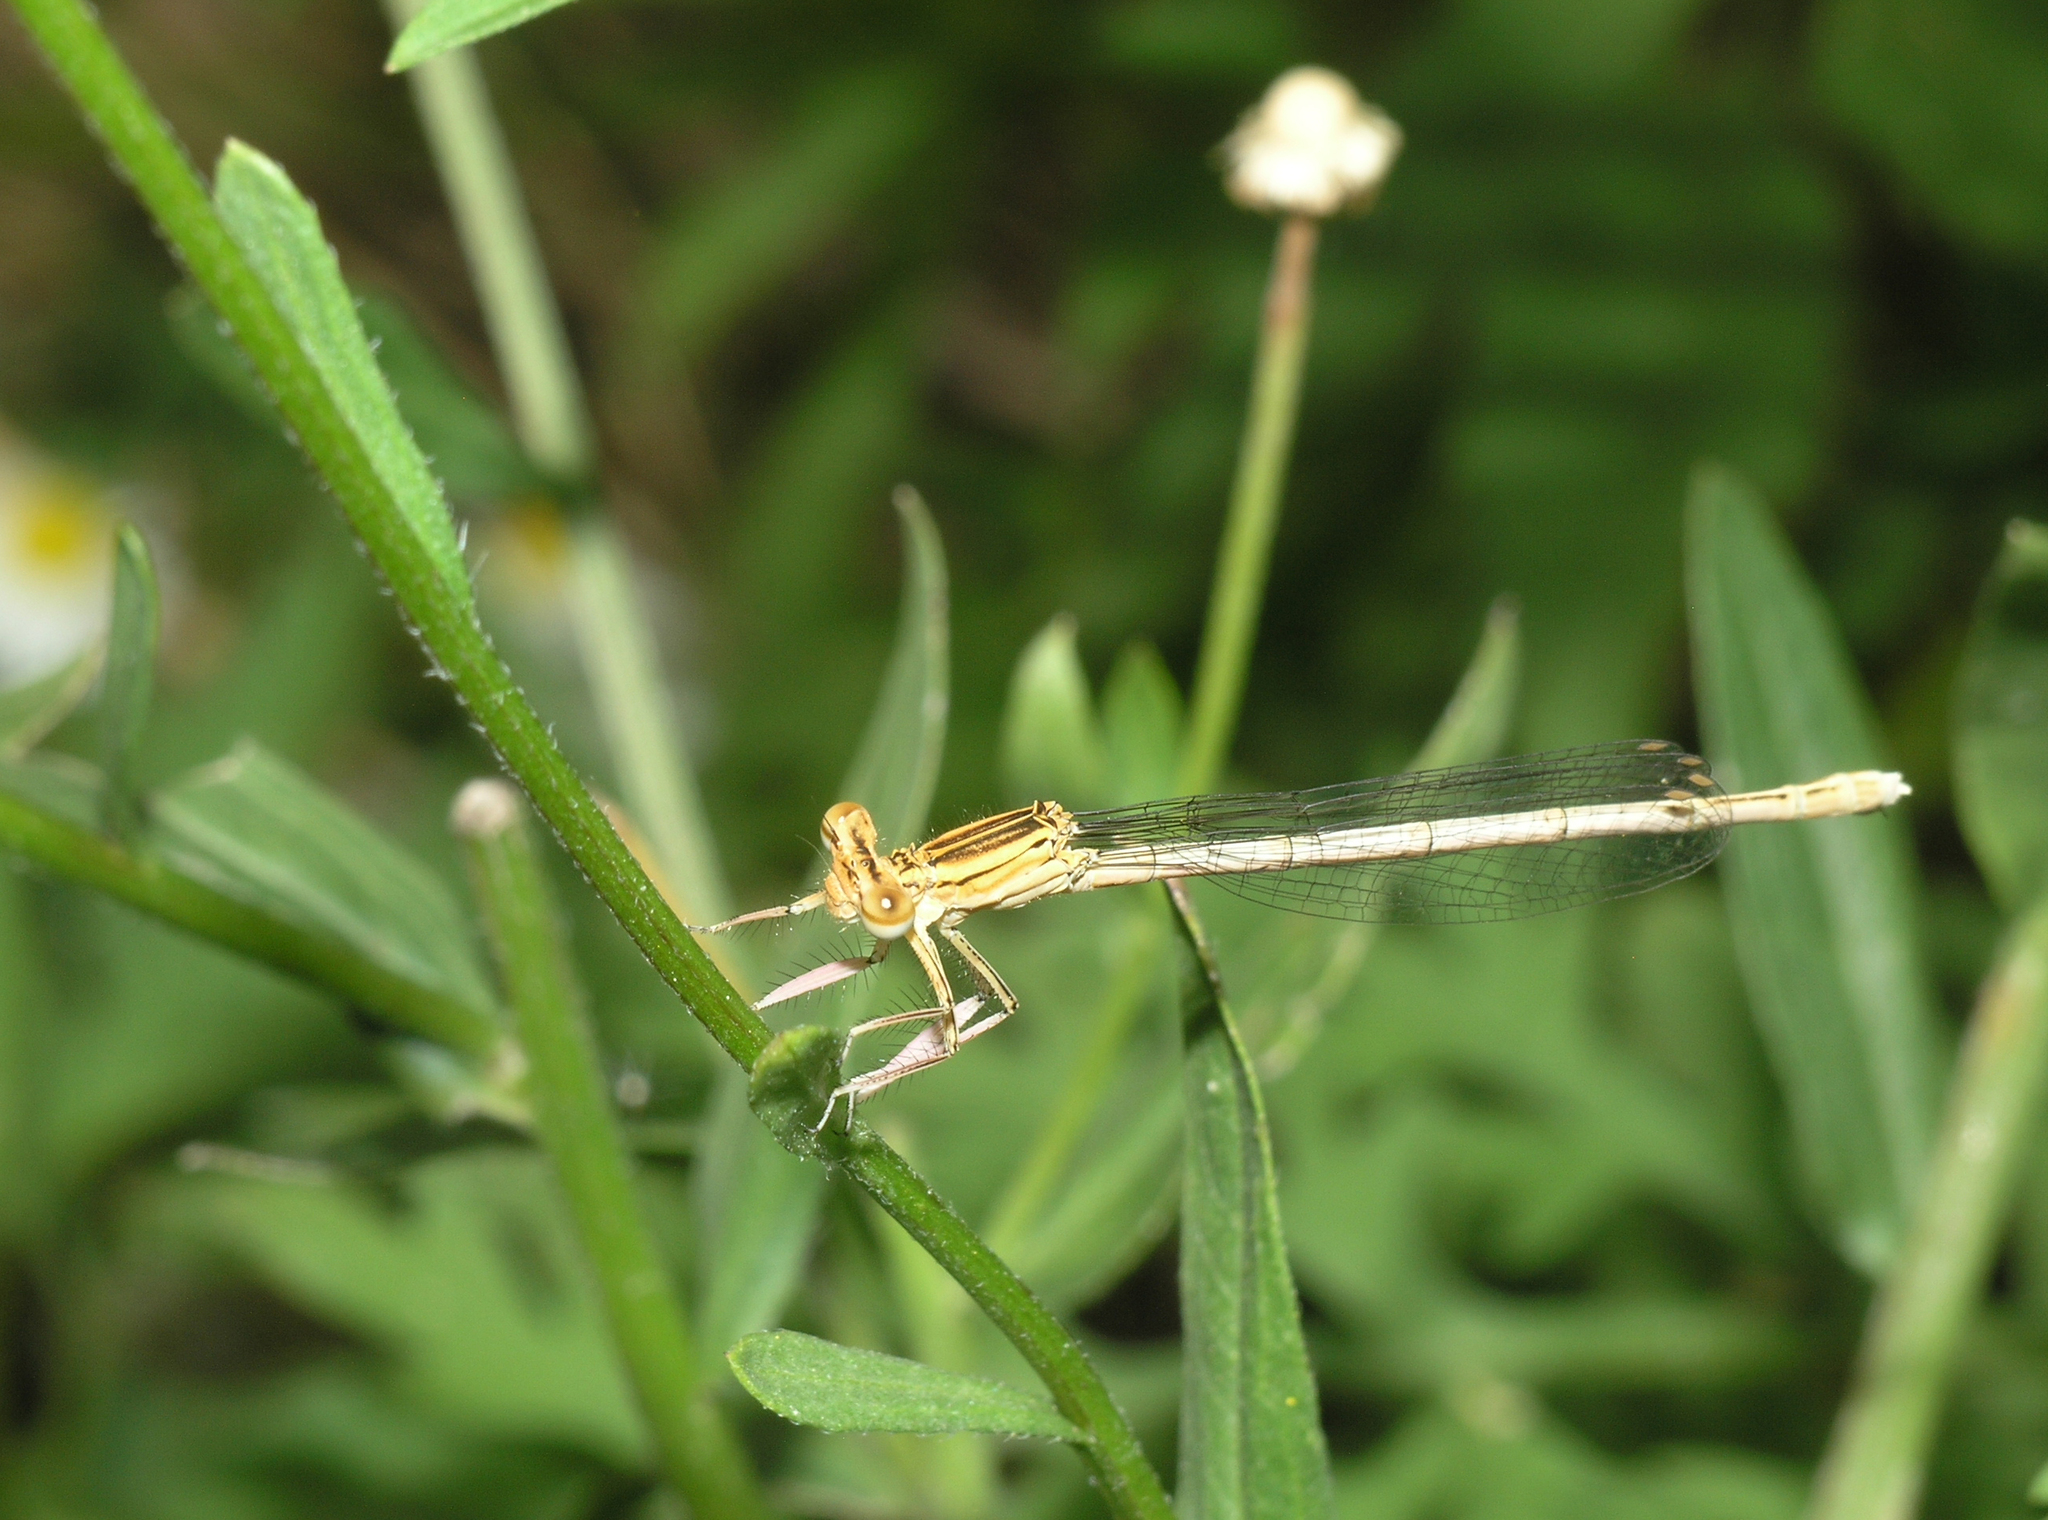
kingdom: Animalia
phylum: Arthropoda
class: Insecta
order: Odonata
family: Platycnemididae
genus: Platycnemis
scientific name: Platycnemis pennipes
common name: White-legged damselfly
